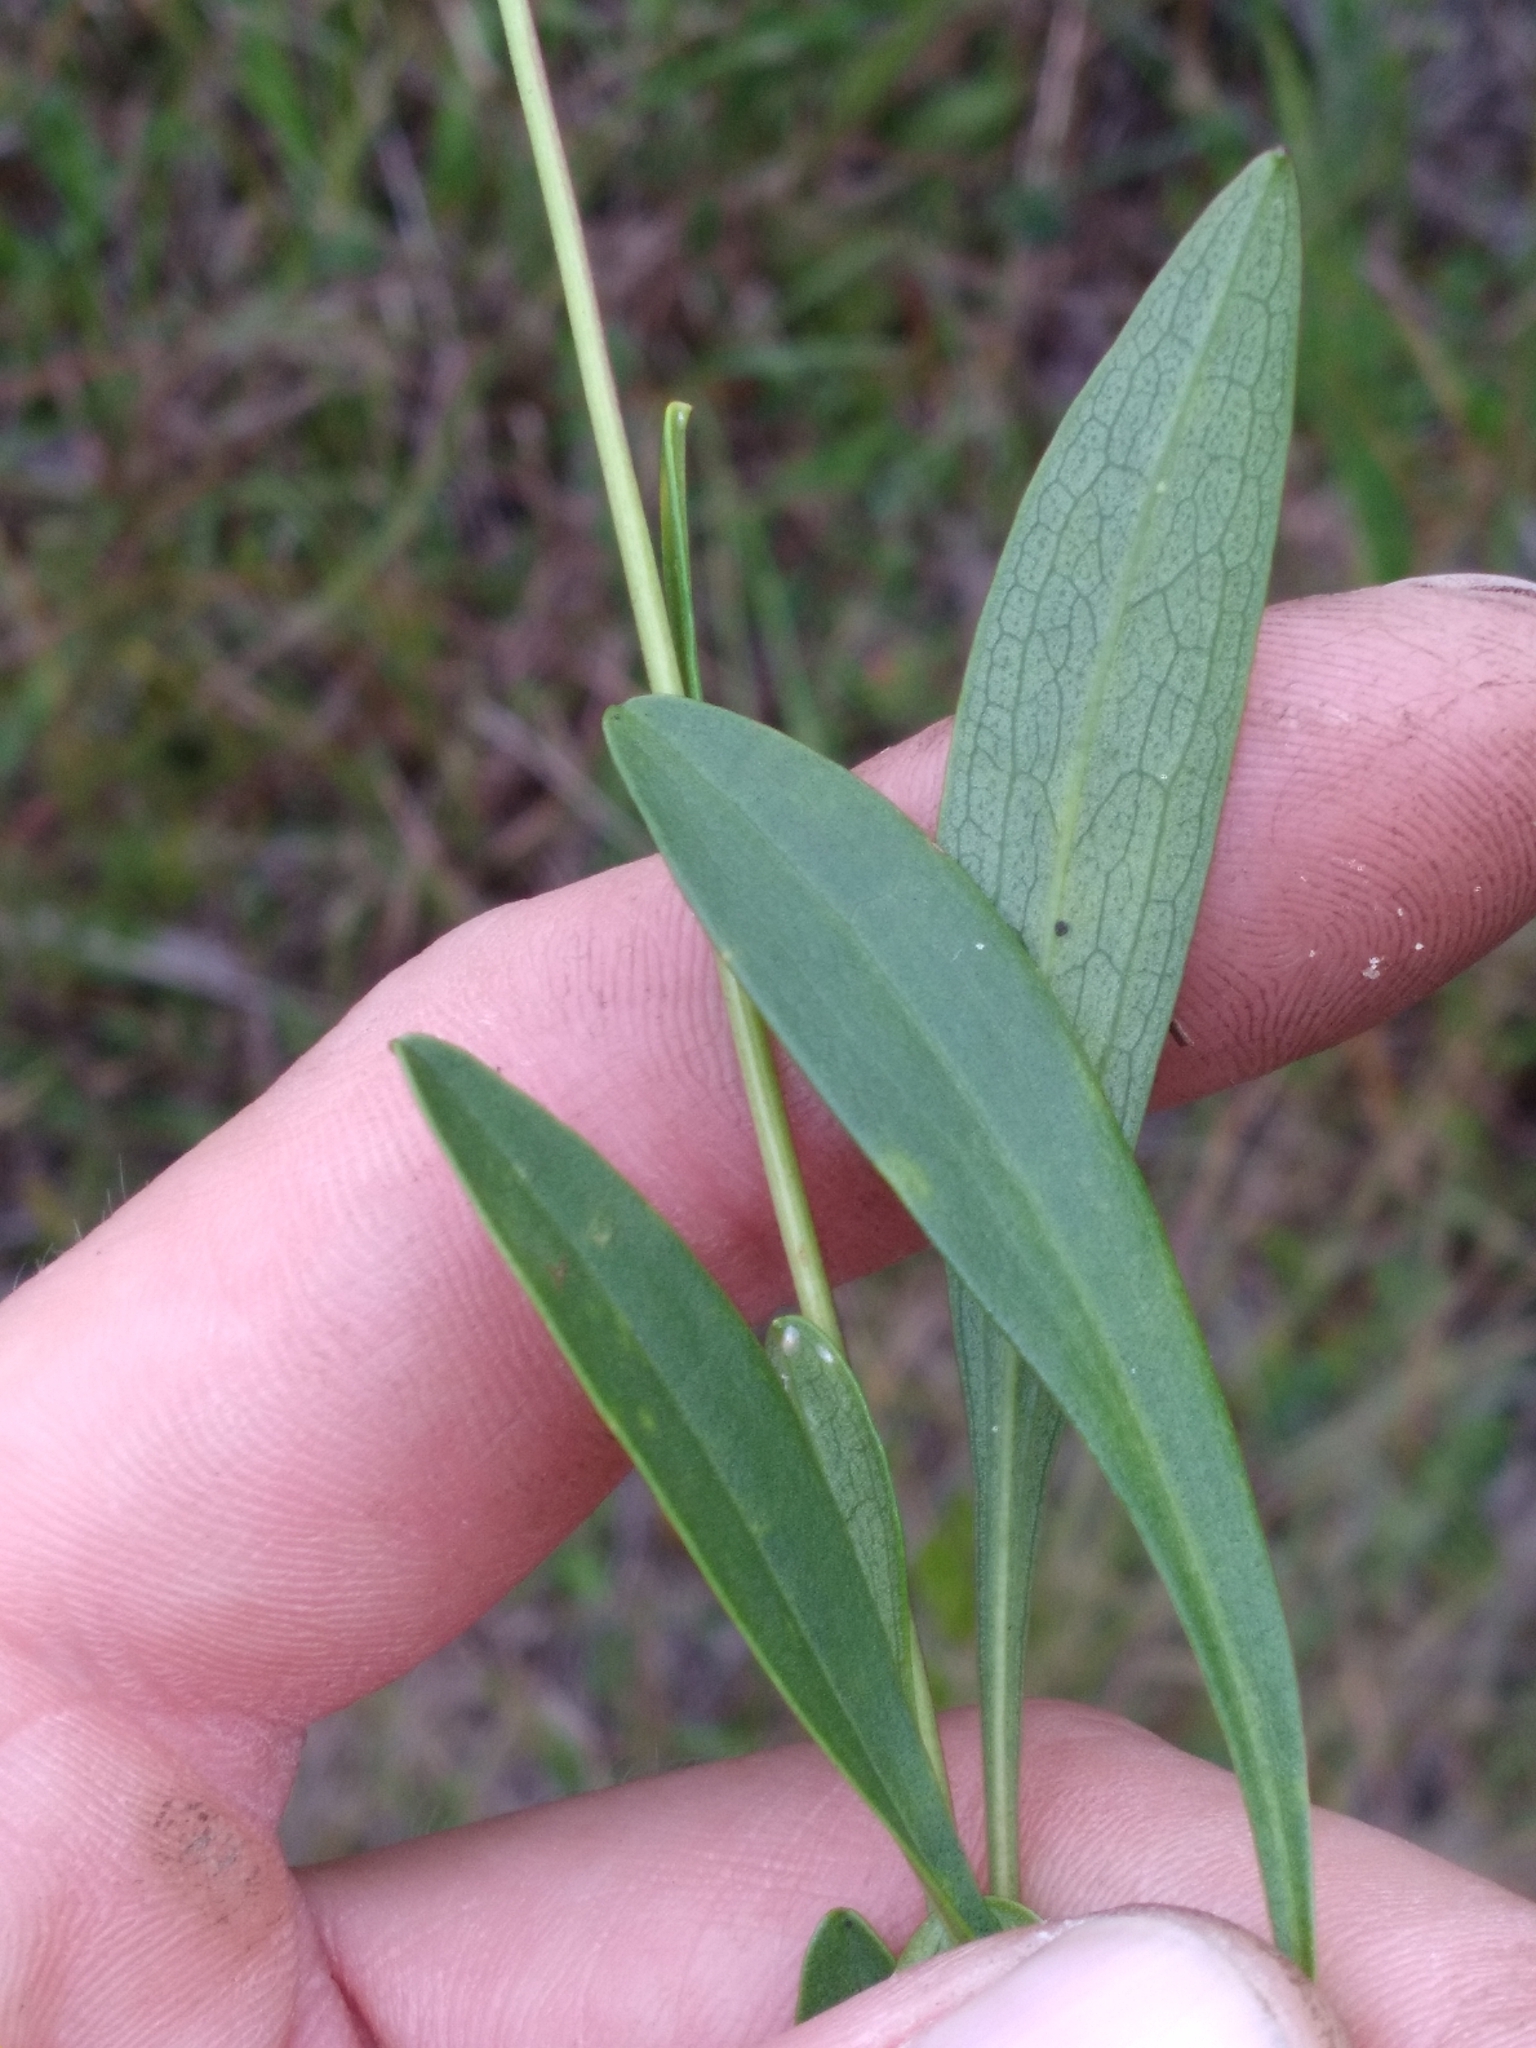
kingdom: Plantae
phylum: Tracheophyta
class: Magnoliopsida
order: Asterales
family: Asteraceae
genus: Solidago
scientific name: Solidago pulchra
